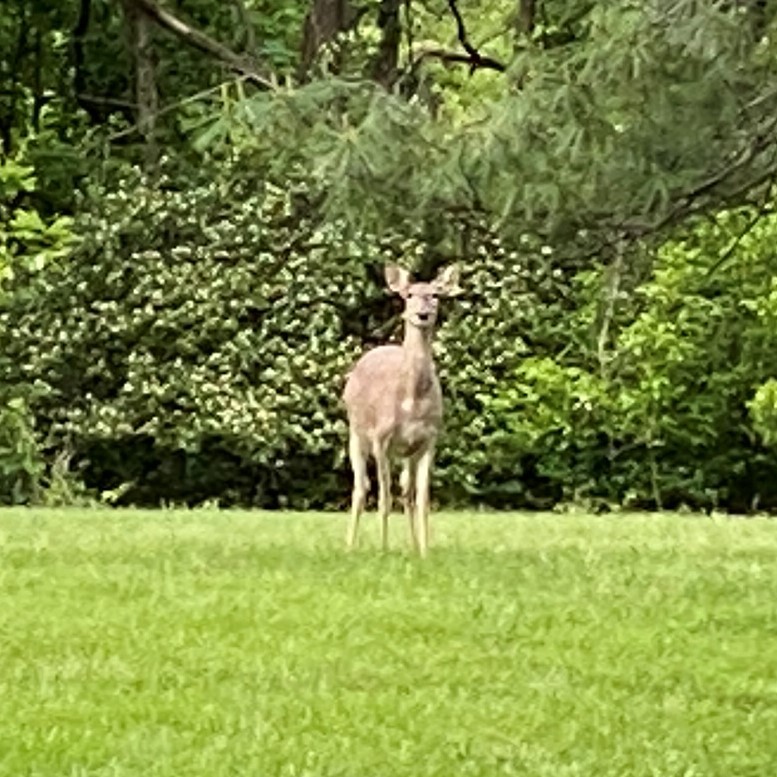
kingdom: Animalia
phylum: Chordata
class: Mammalia
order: Artiodactyla
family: Cervidae
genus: Odocoileus
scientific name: Odocoileus virginianus
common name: White-tailed deer
